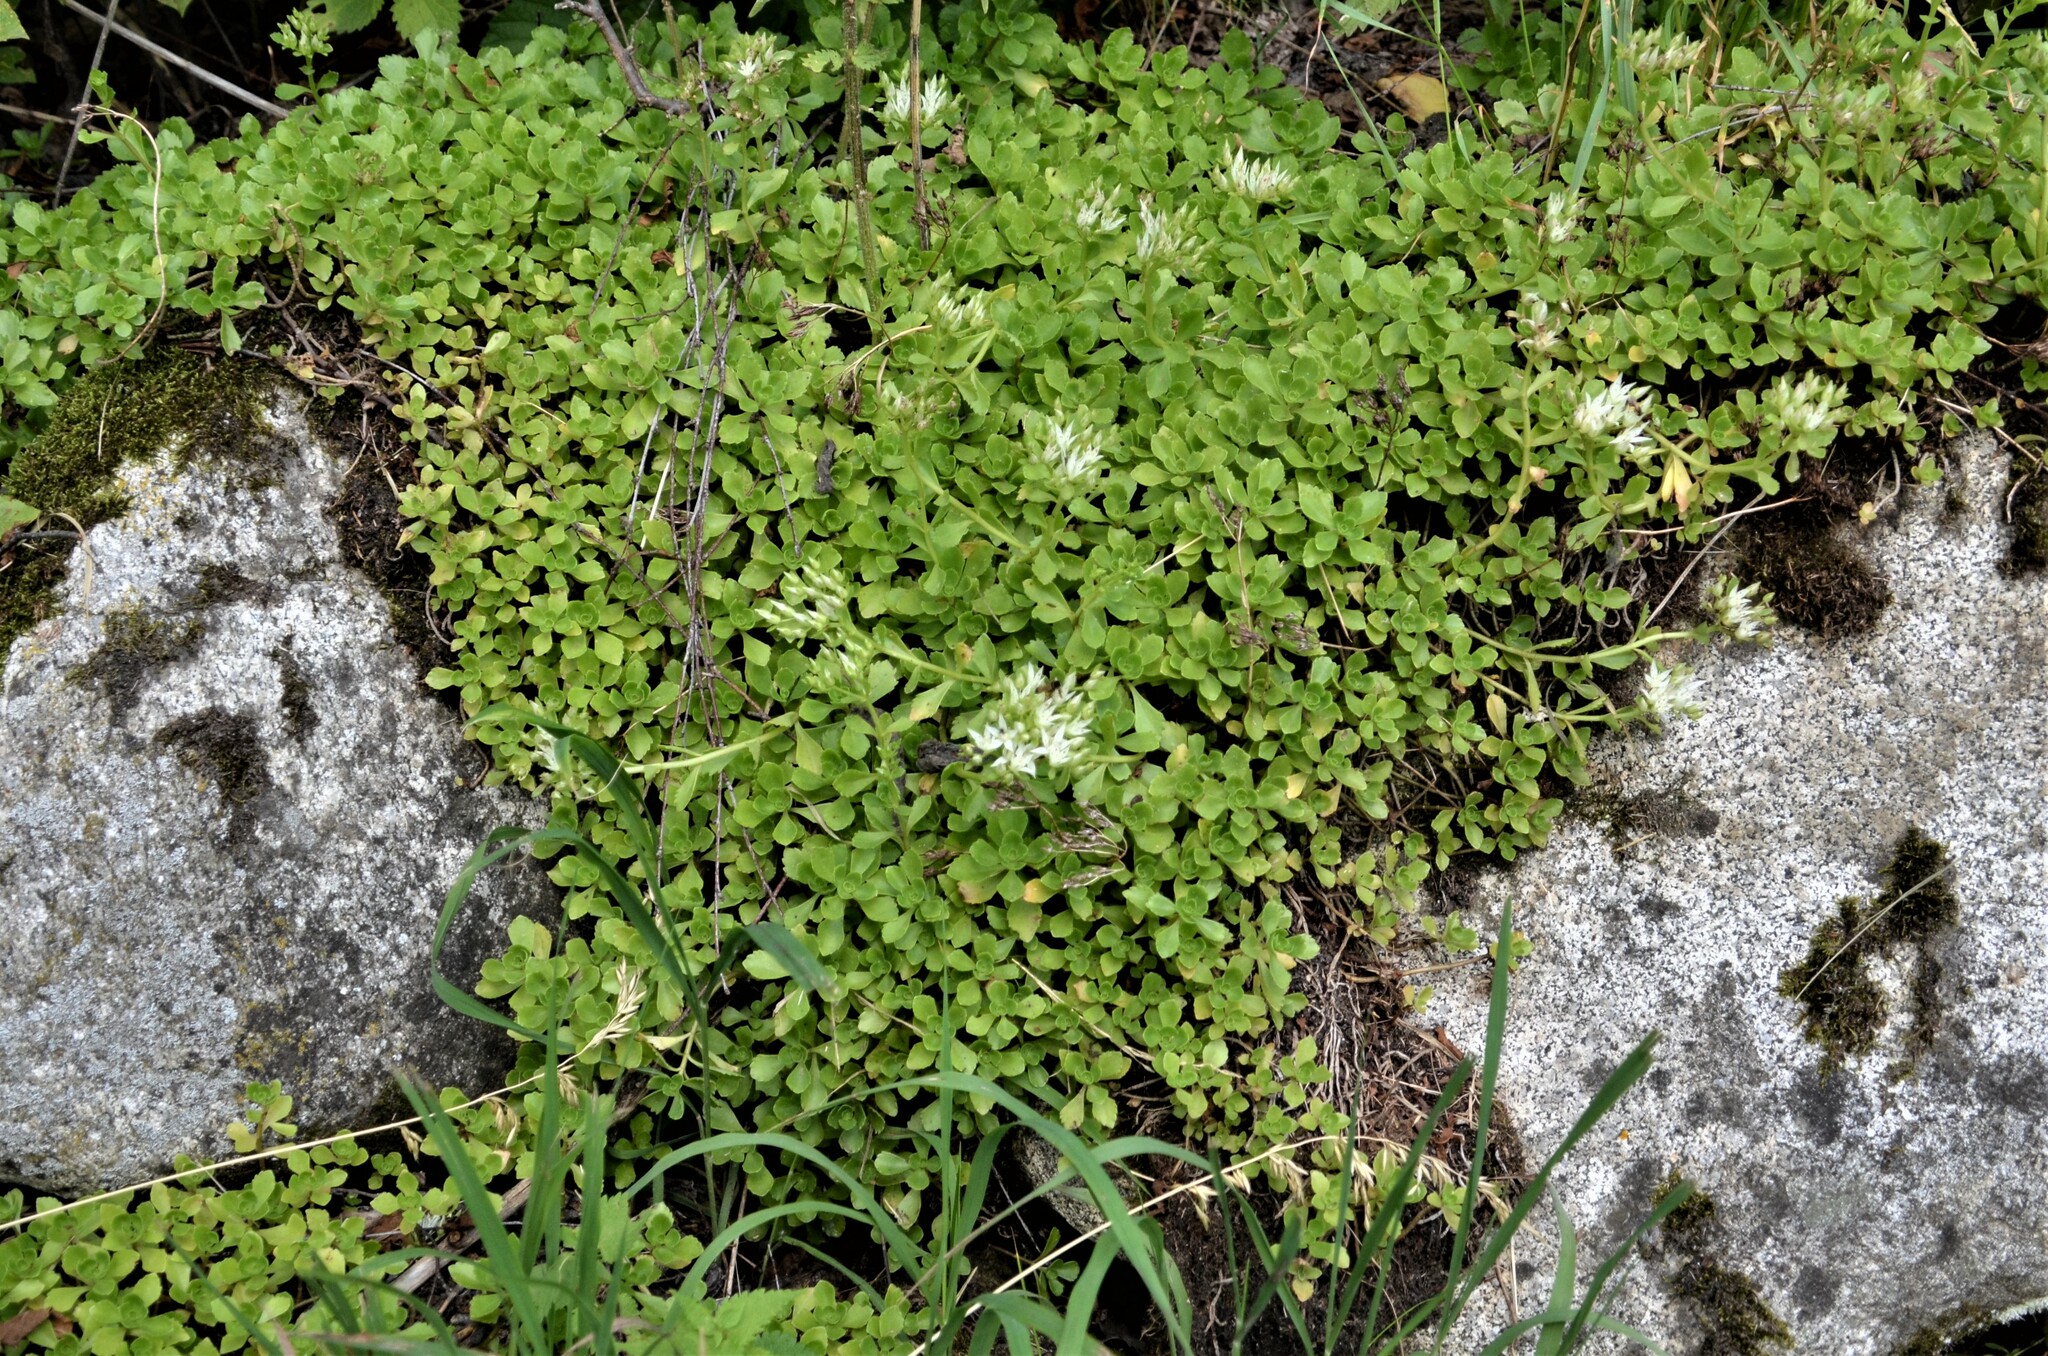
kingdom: Plantae
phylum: Tracheophyta
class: Magnoliopsida
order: Saxifragales
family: Crassulaceae
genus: Phedimus
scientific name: Phedimus spurius
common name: Caucasian stonecrop
